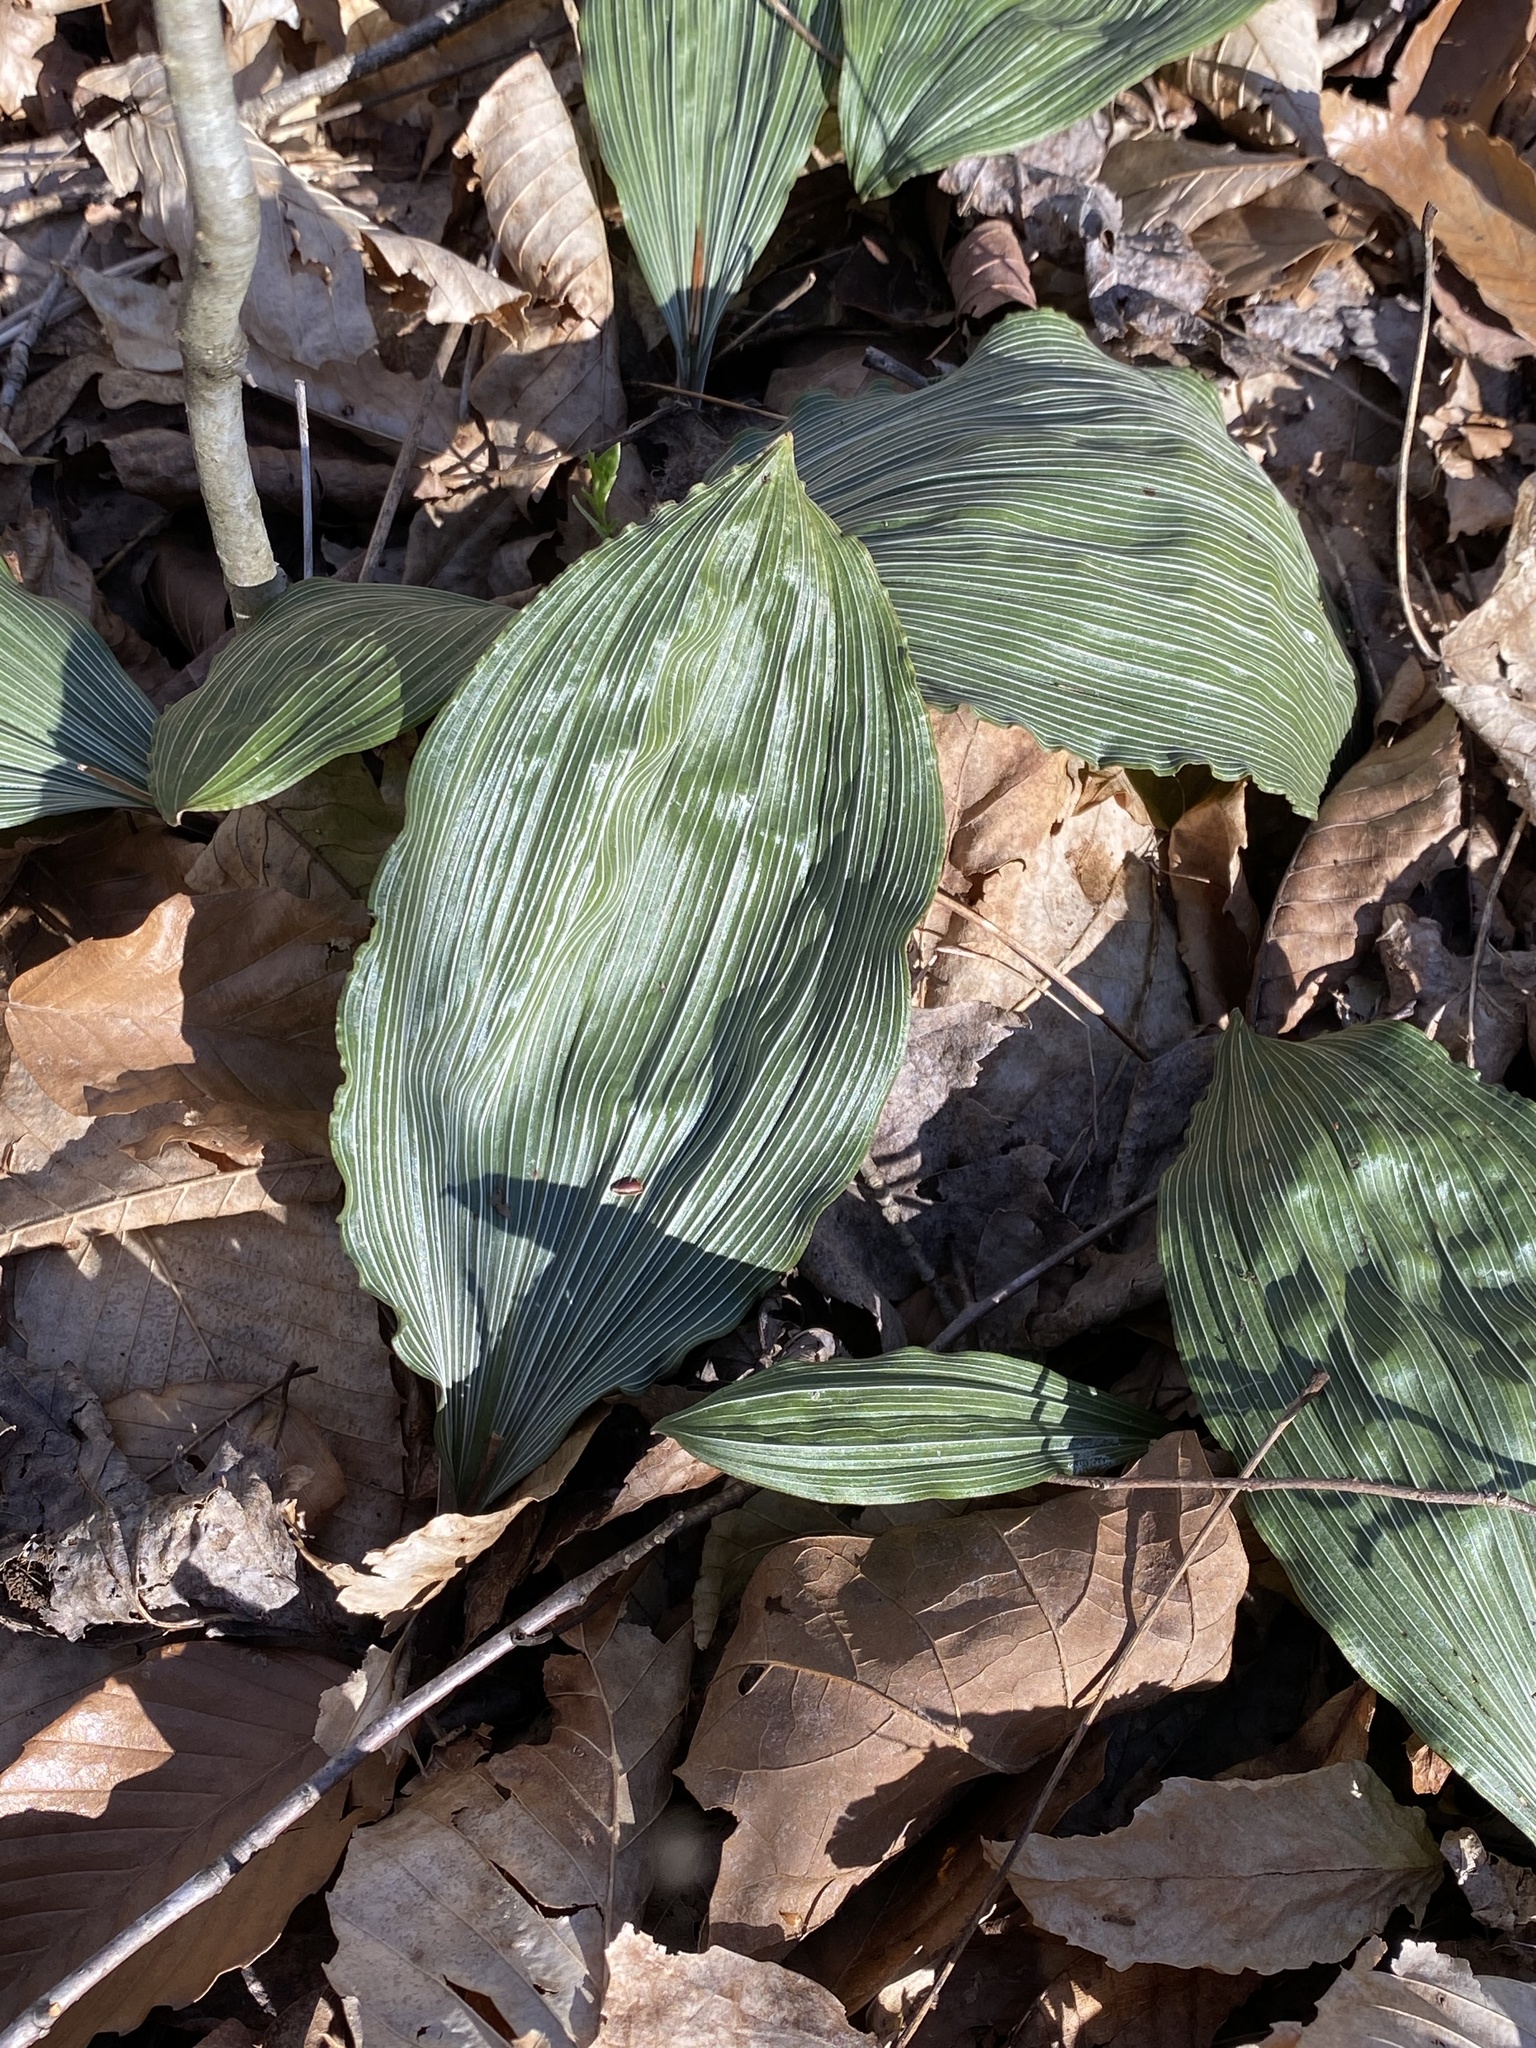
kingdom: Plantae
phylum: Tracheophyta
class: Liliopsida
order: Asparagales
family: Orchidaceae
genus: Aplectrum
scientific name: Aplectrum hyemale
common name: Adam-and-eve
